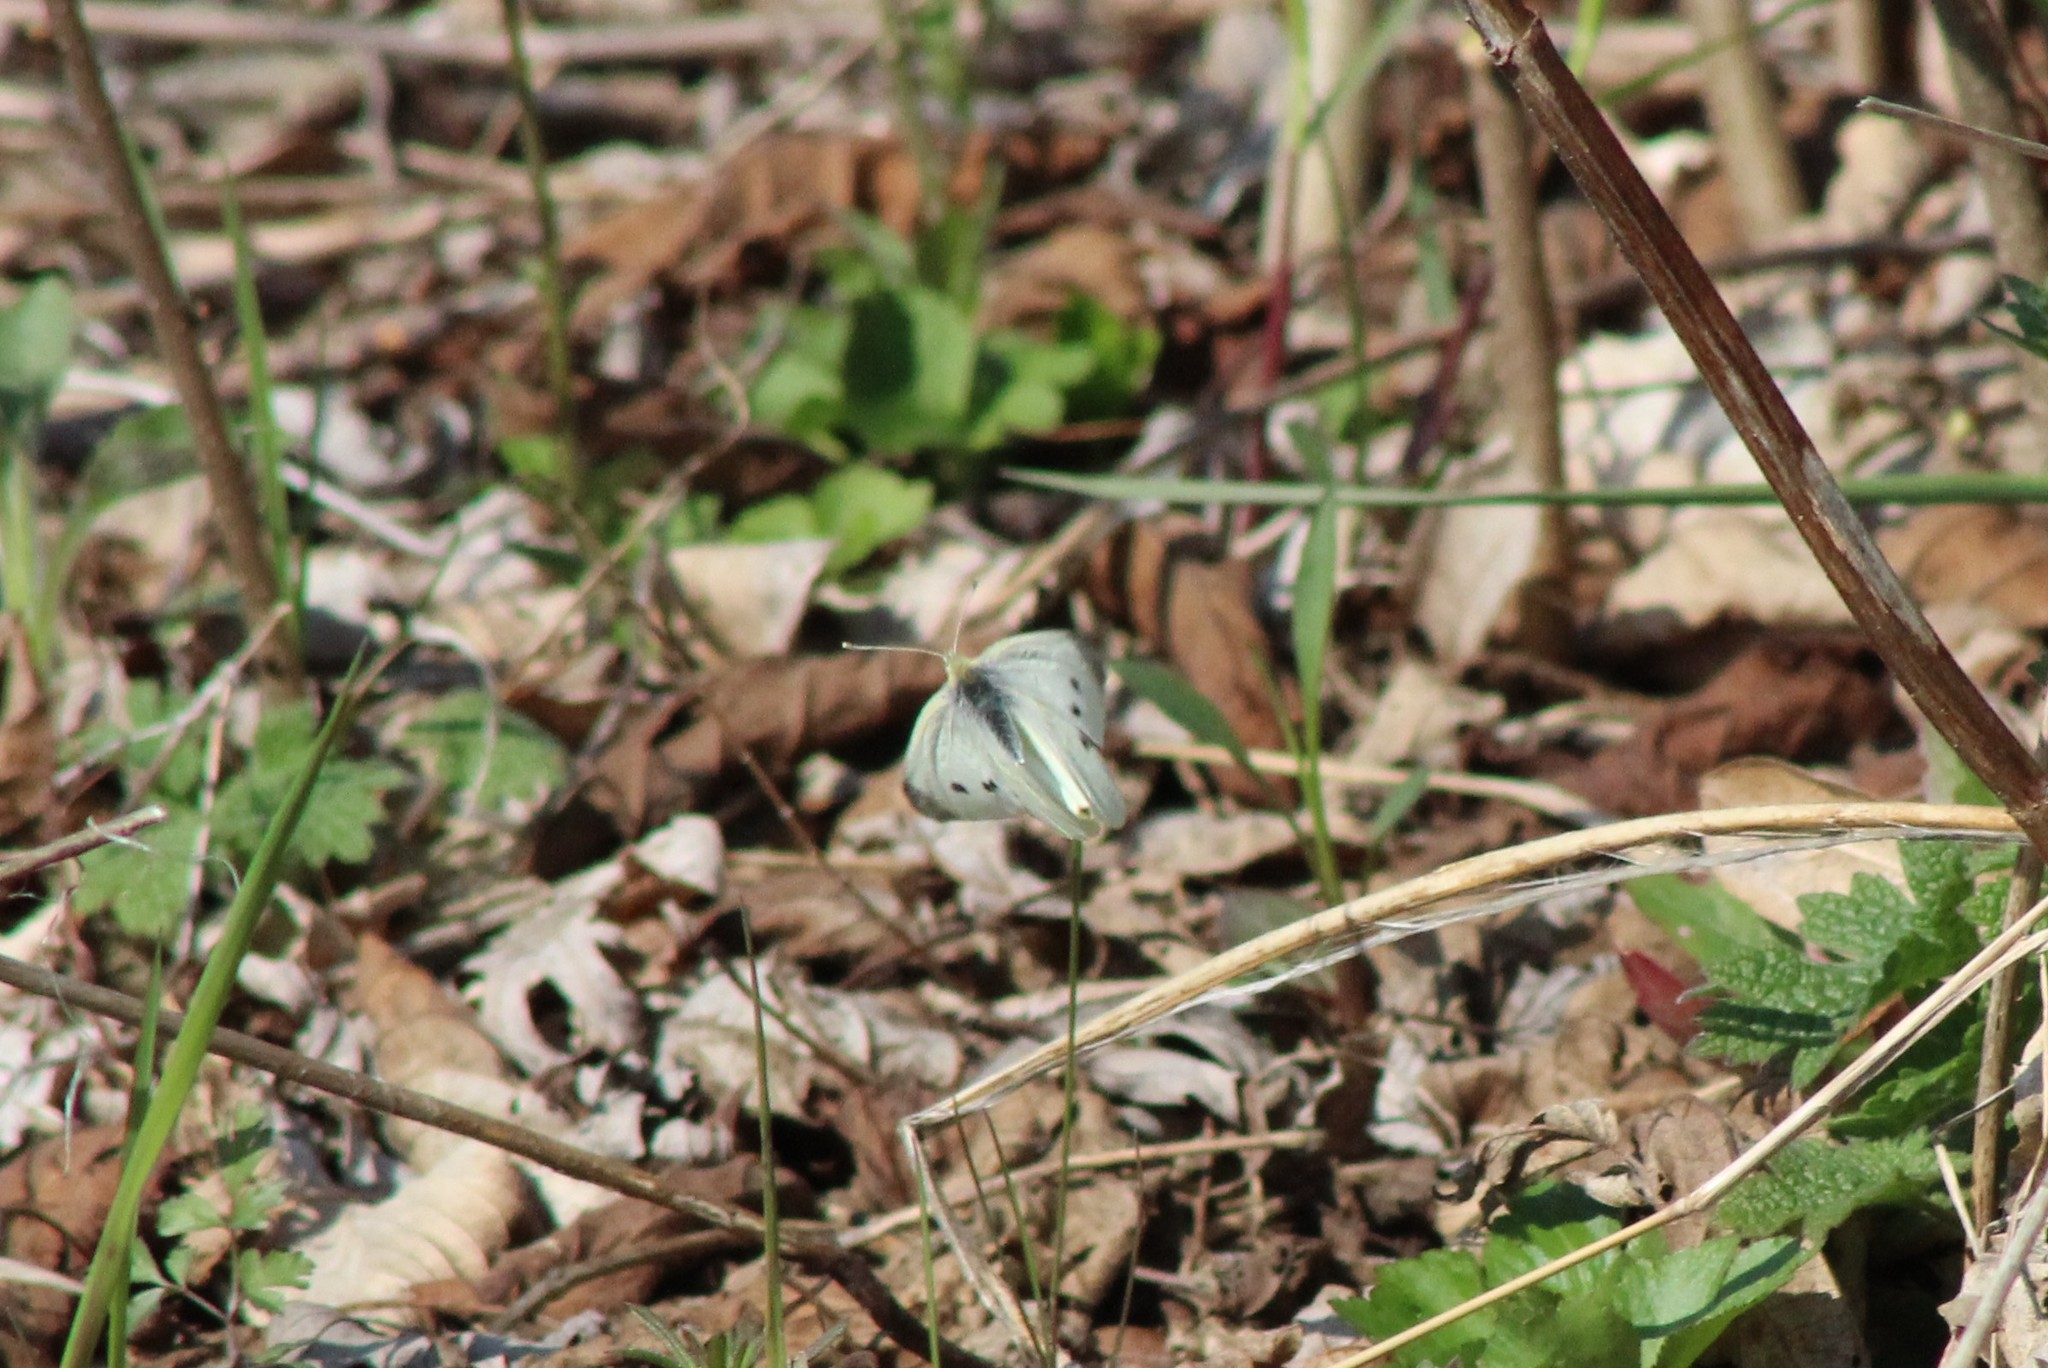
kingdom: Animalia
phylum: Arthropoda
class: Insecta
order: Lepidoptera
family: Pieridae
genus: Pieris
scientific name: Pieris rapae
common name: Small white
